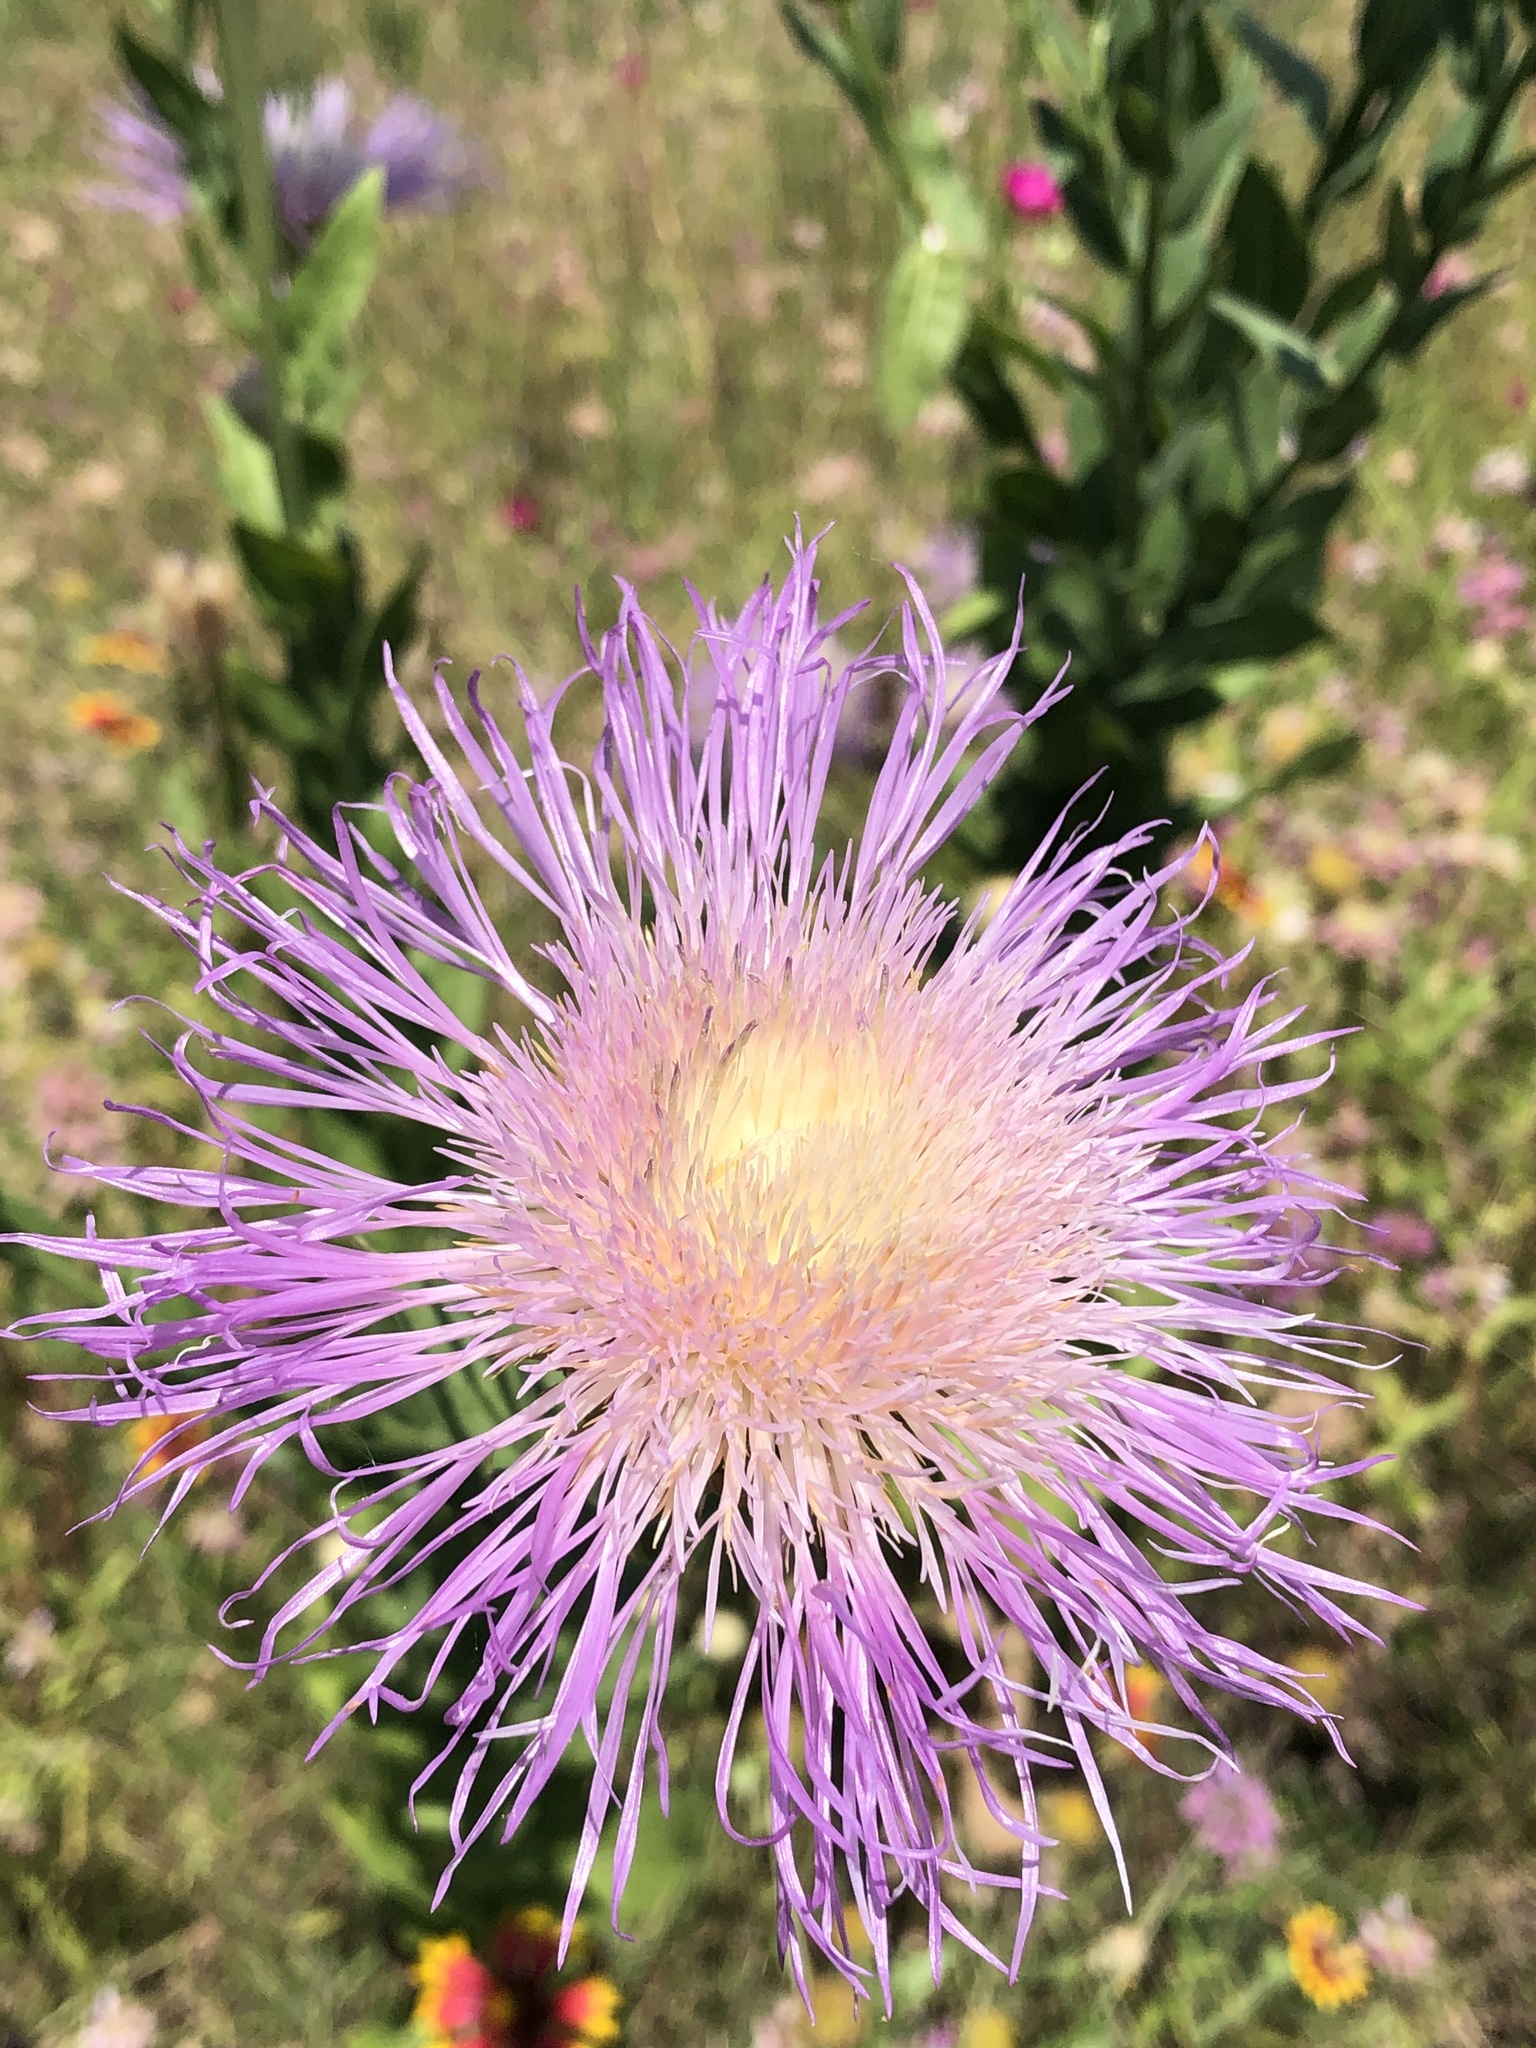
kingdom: Plantae
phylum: Tracheophyta
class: Magnoliopsida
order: Asterales
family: Asteraceae
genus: Plectocephalus
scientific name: Plectocephalus americanus
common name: American basket-flower
